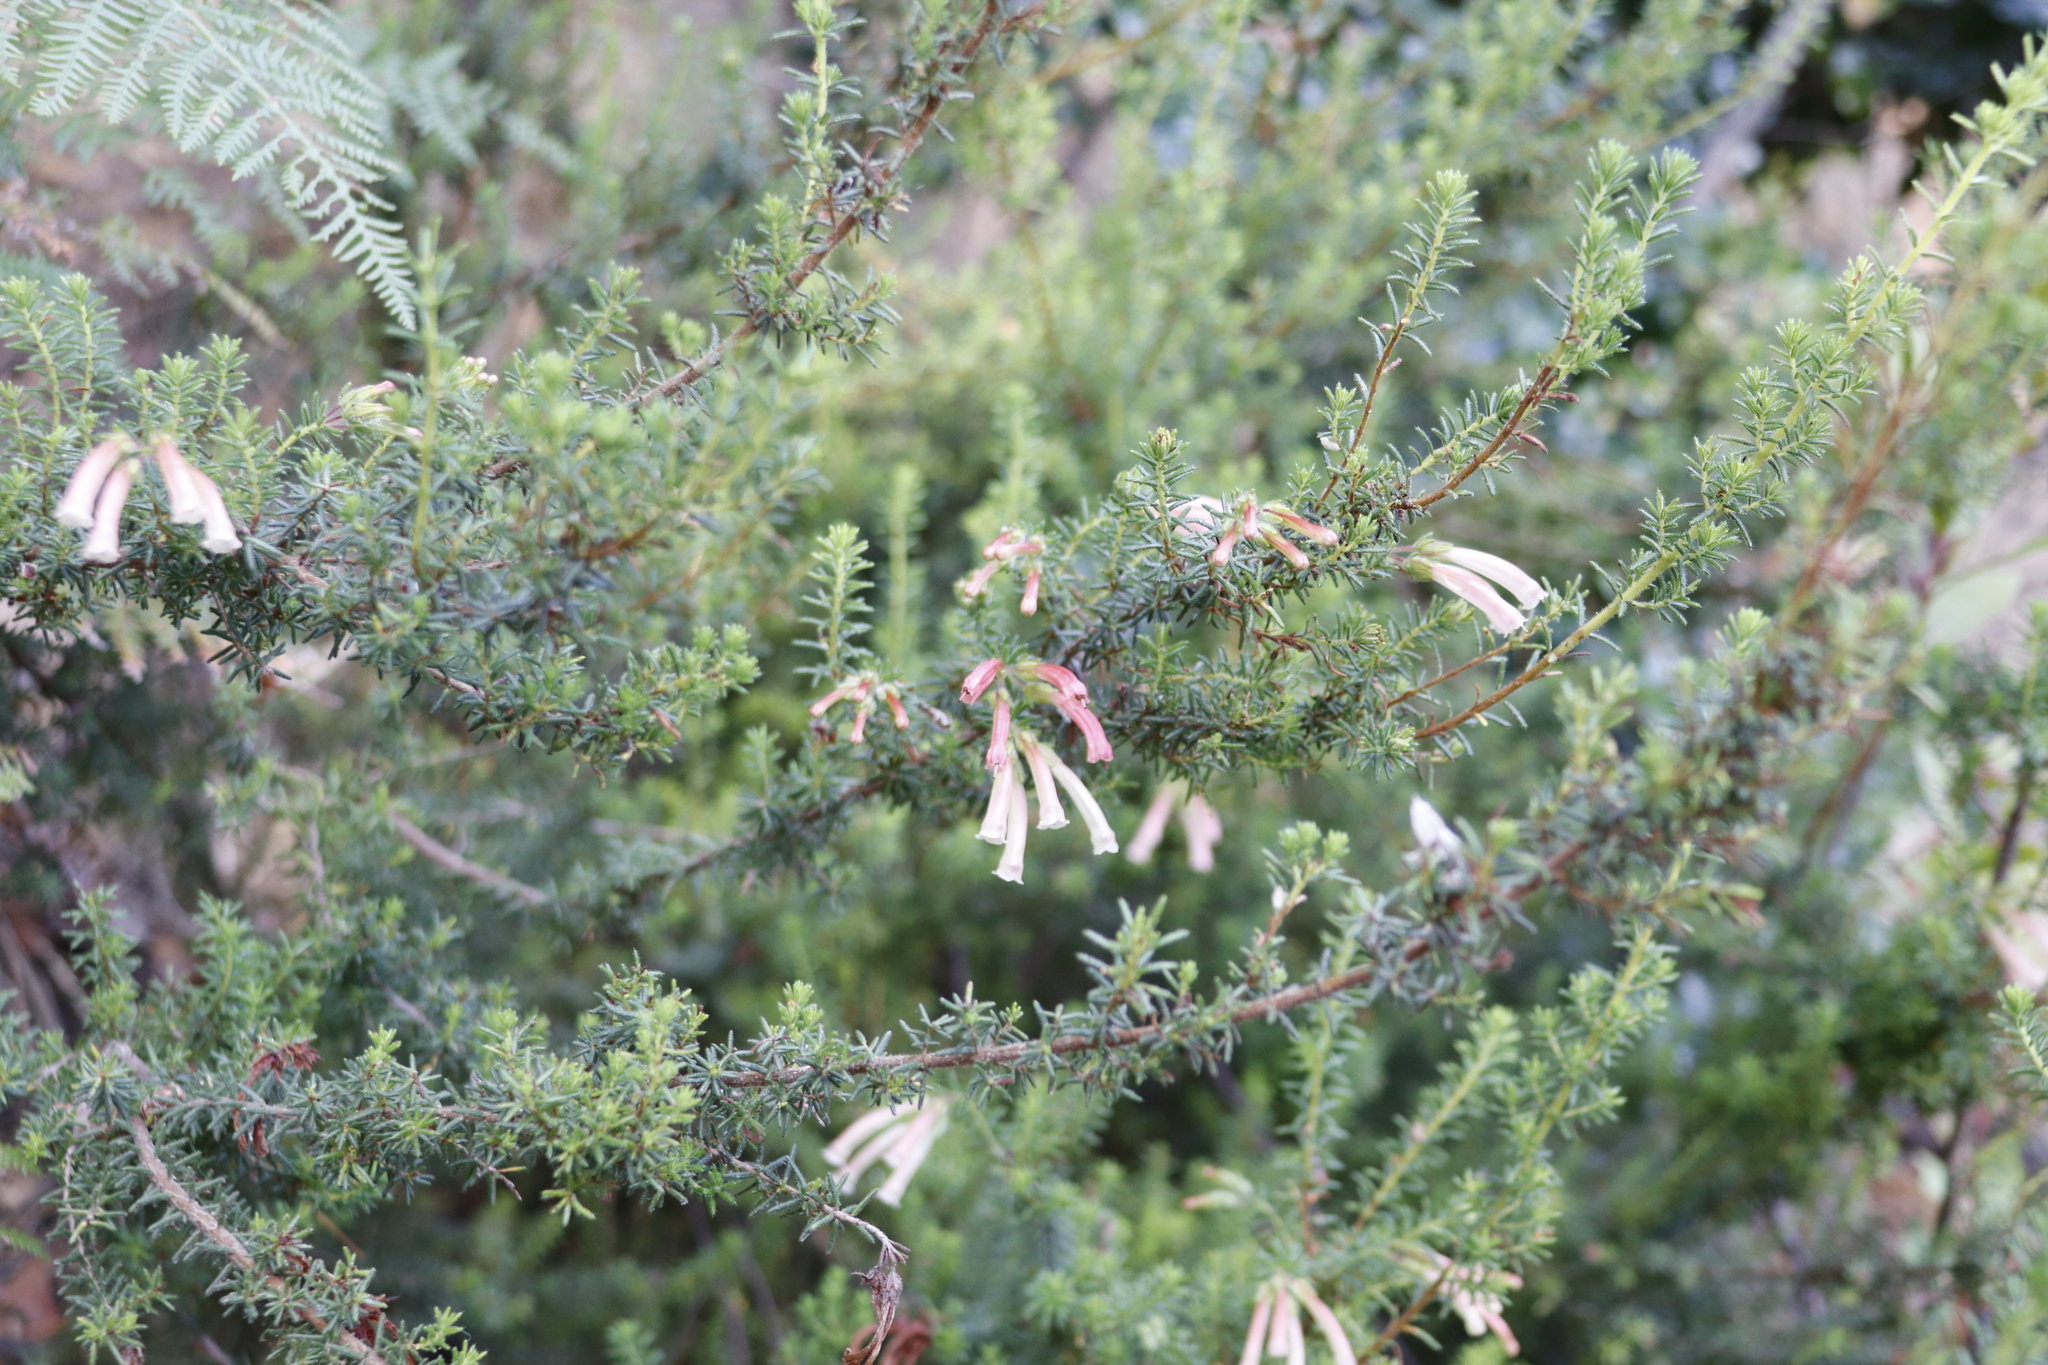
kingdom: Plantae
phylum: Tracheophyta
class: Magnoliopsida
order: Ericales
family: Ericaceae
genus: Erica
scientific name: Erica glandulosa
